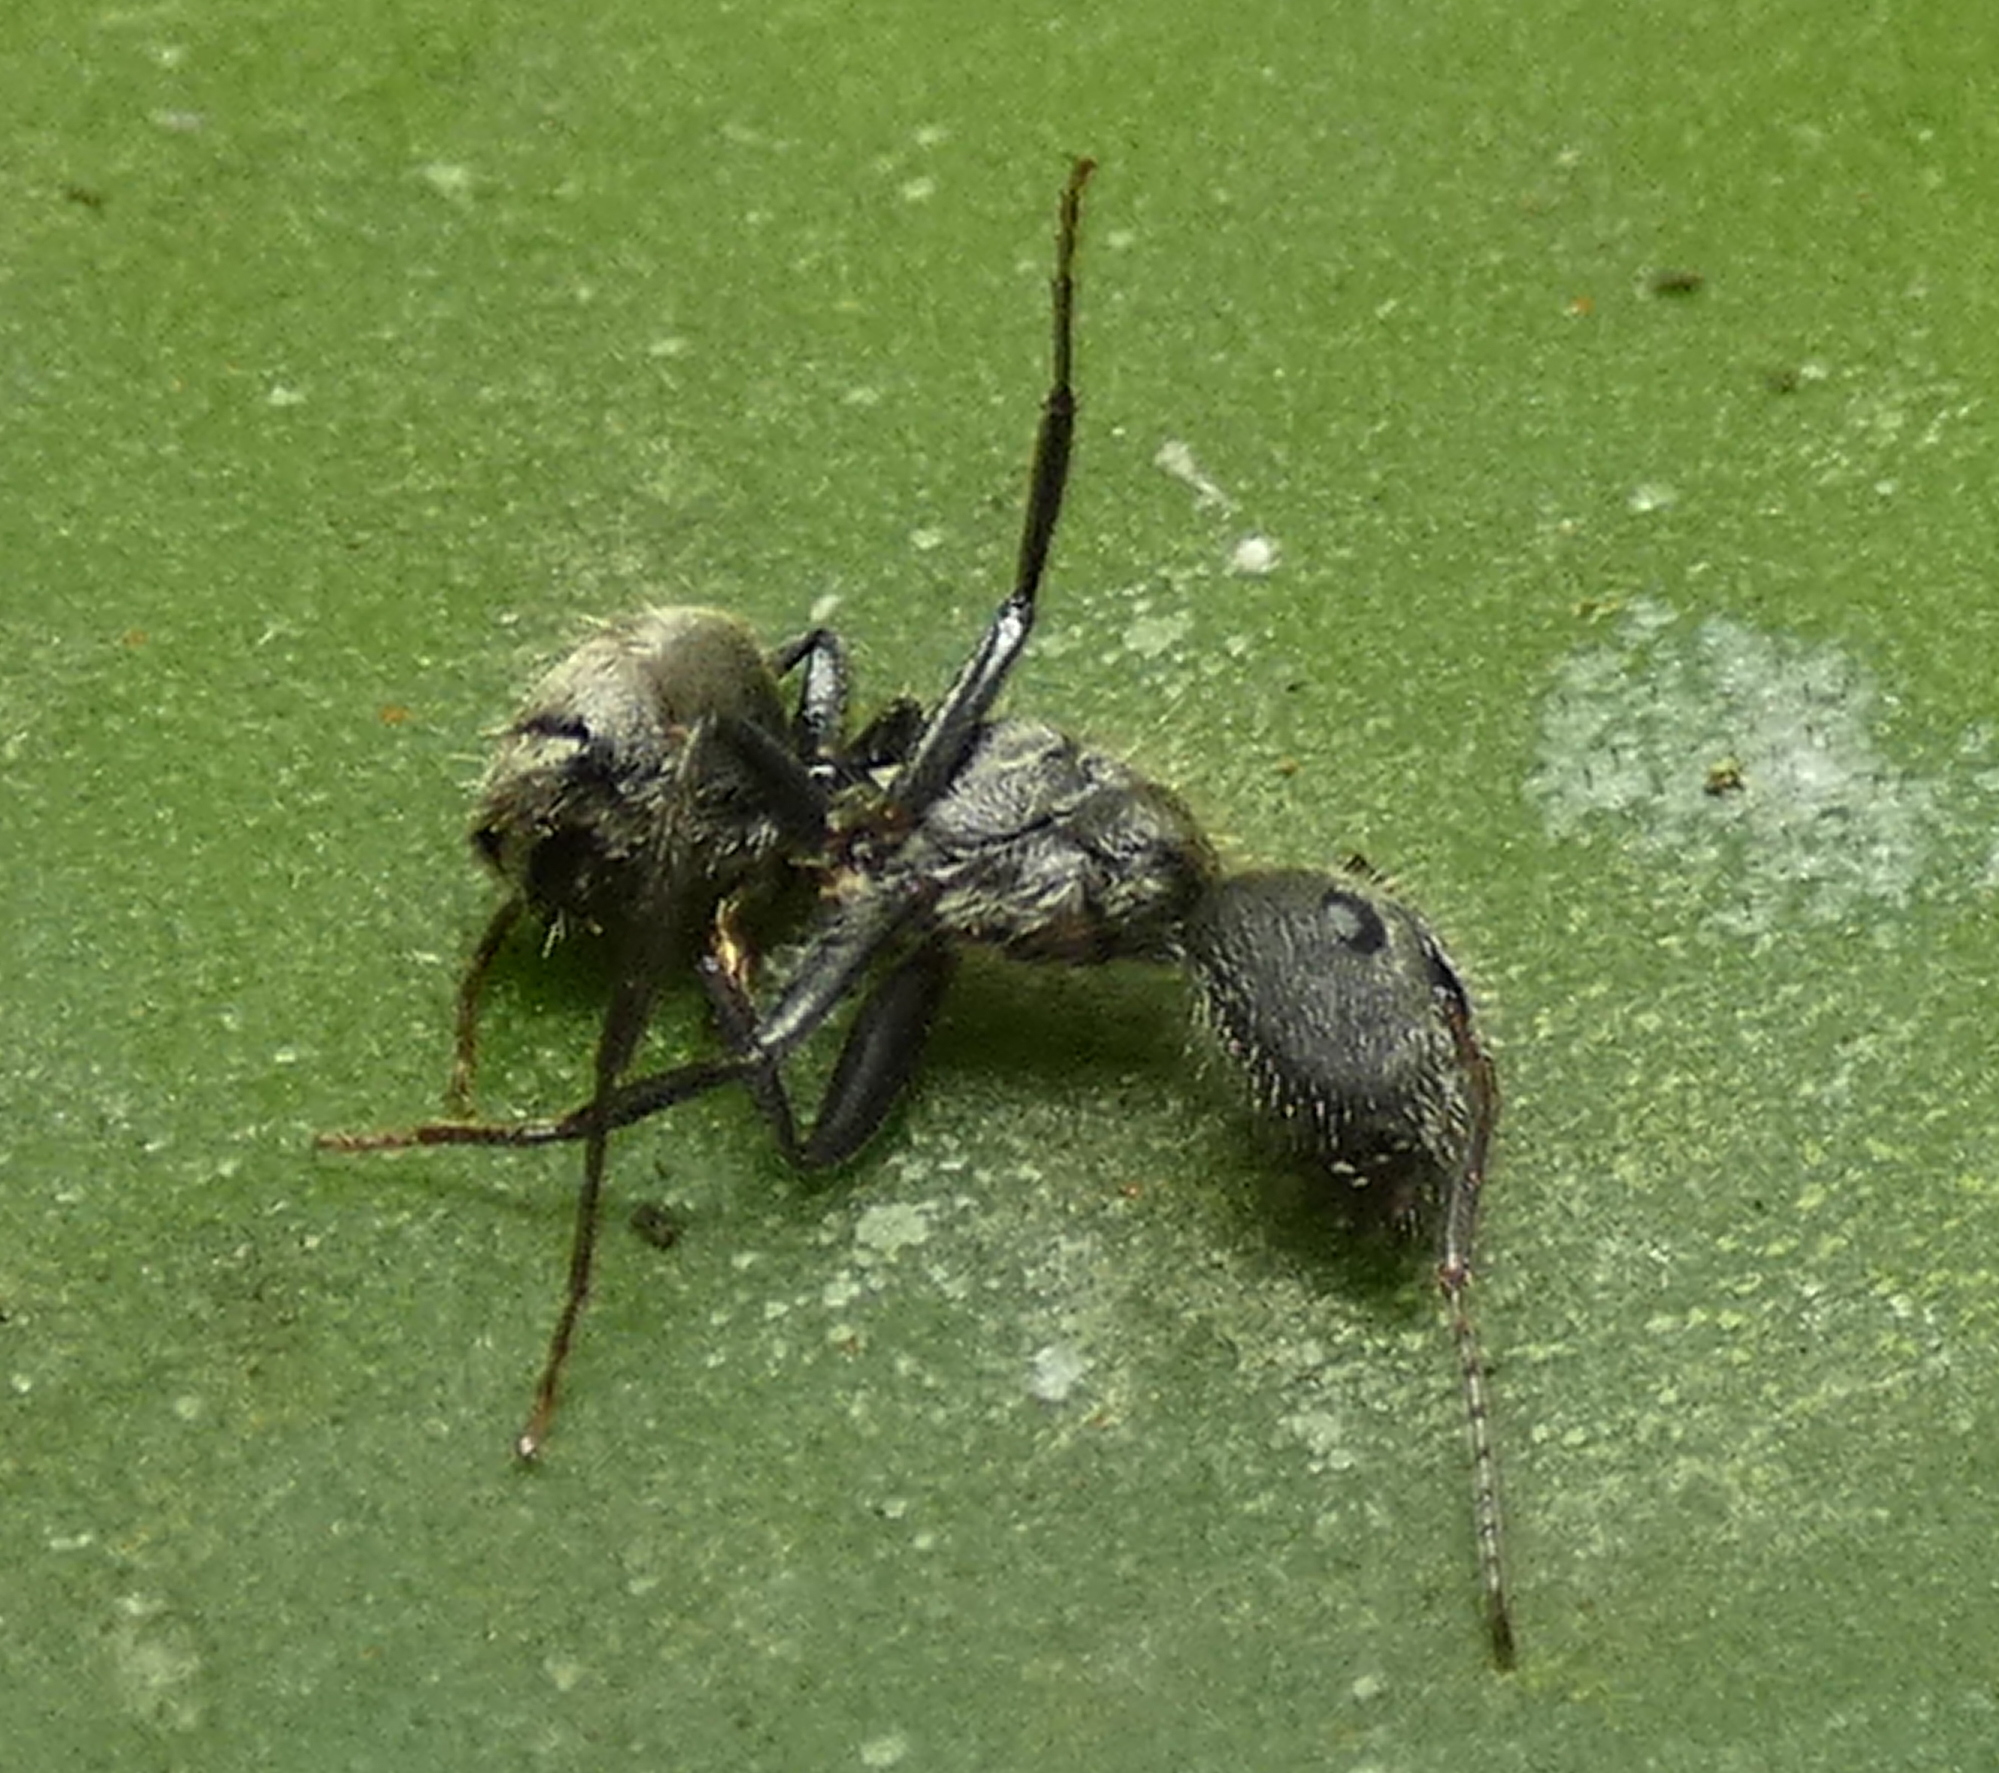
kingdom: Animalia
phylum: Arthropoda
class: Insecta
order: Hymenoptera
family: Formicidae
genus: Camponotus
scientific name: Camponotus arboreus
